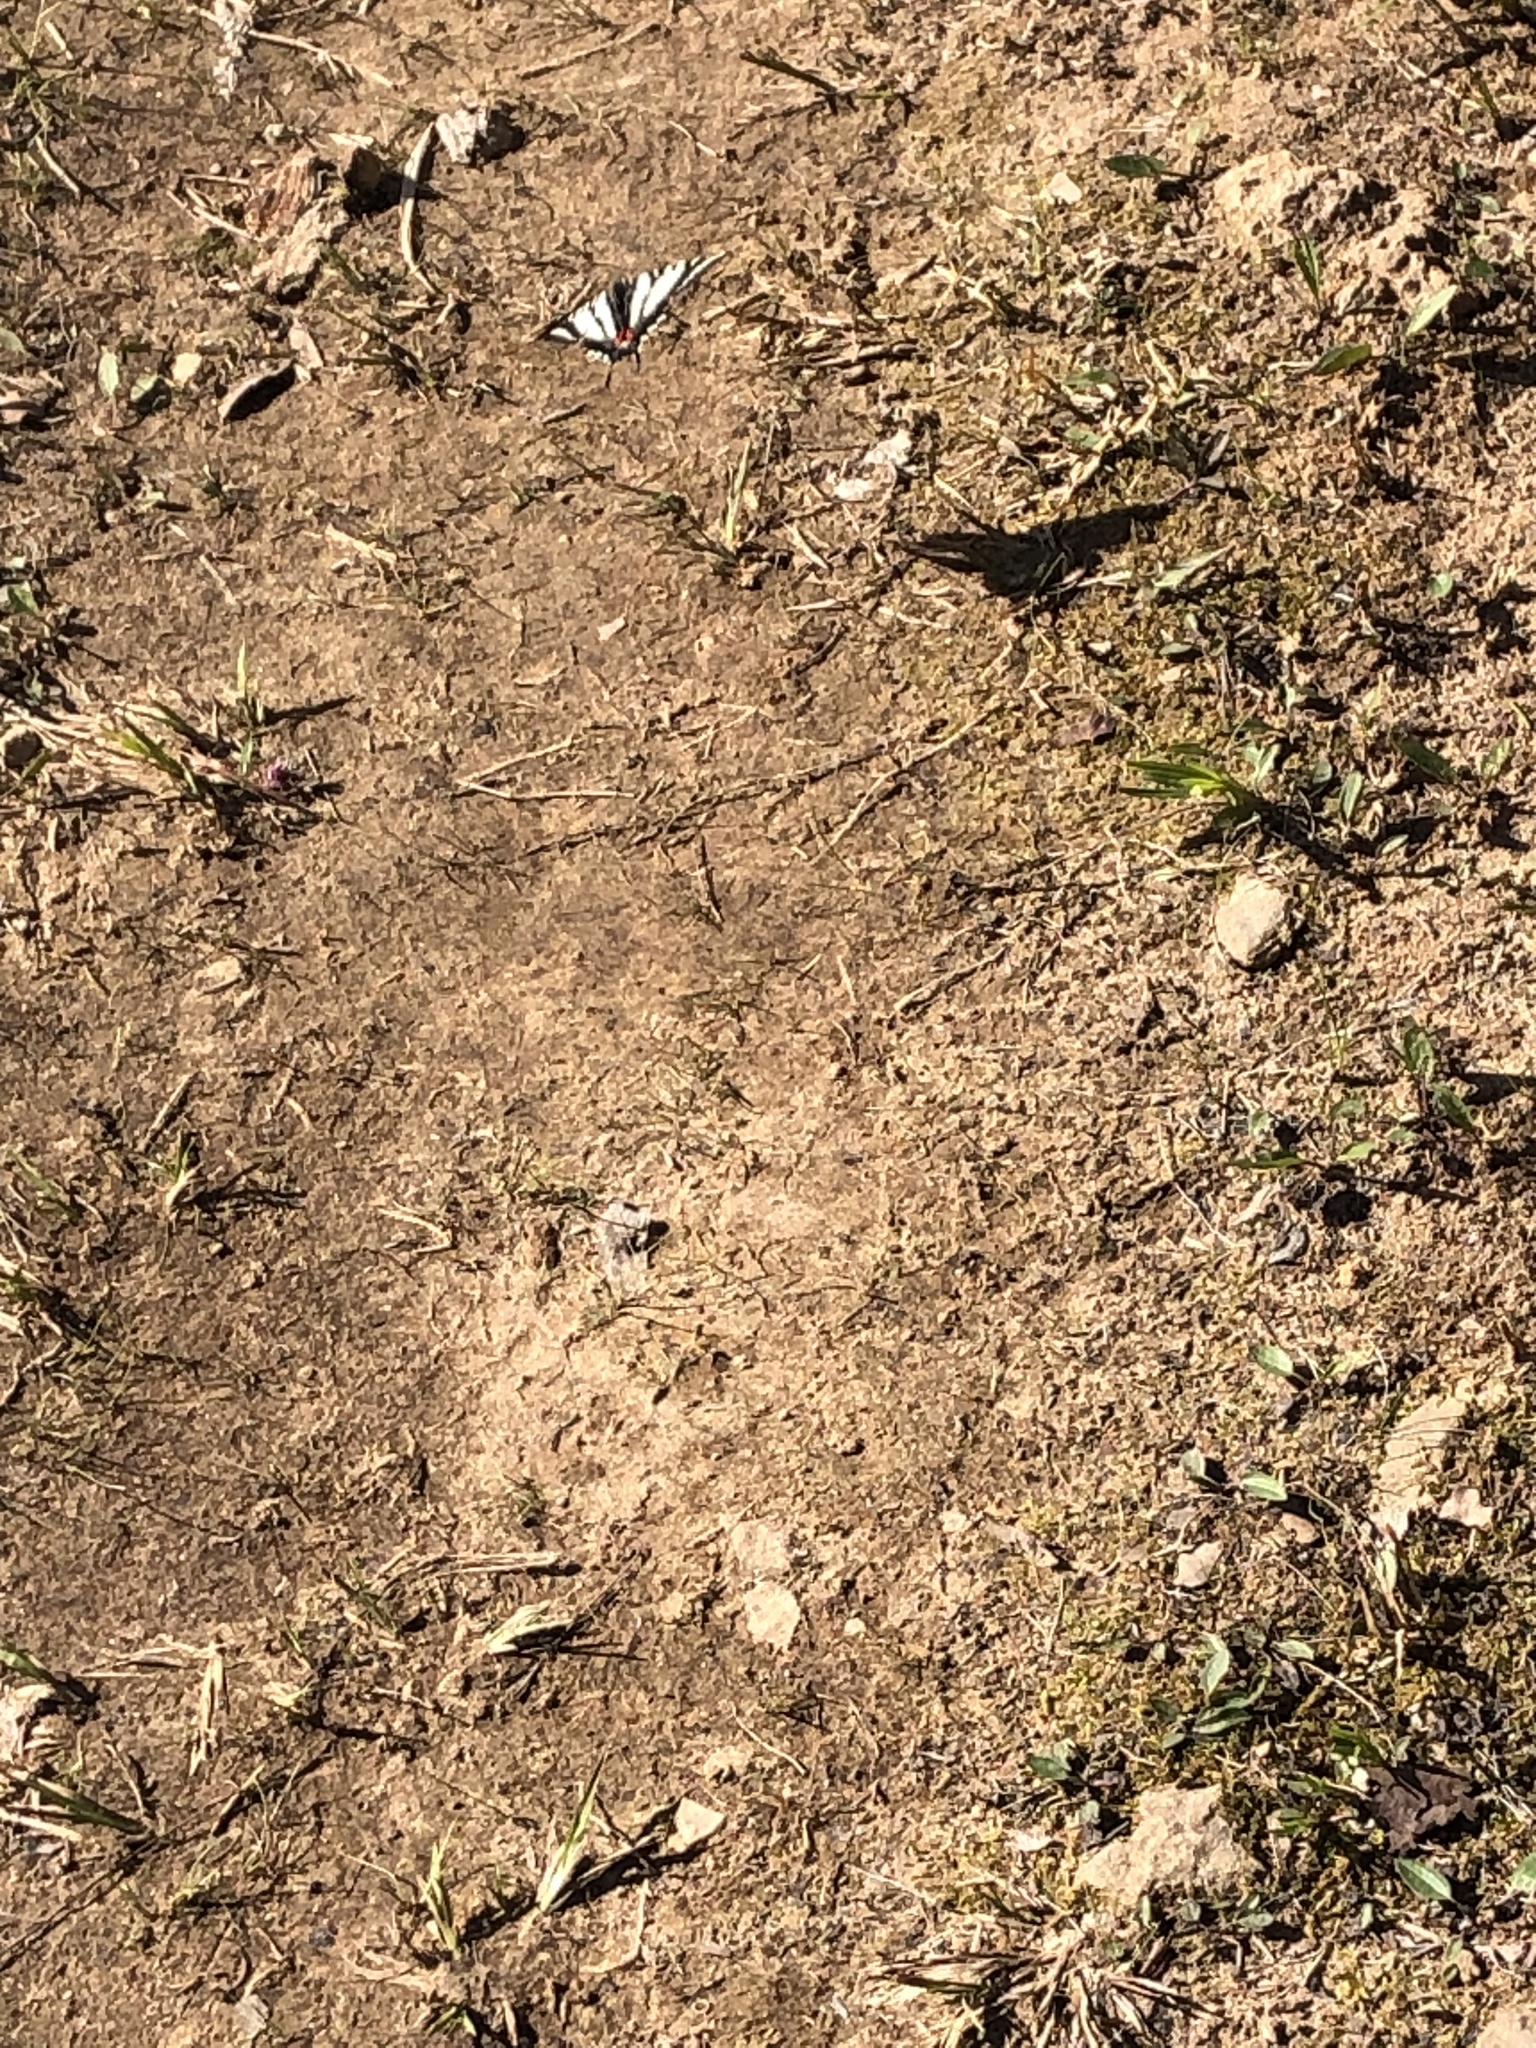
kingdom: Animalia
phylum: Arthropoda
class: Insecta
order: Lepidoptera
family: Papilionidae
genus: Protographium
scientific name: Protographium marcellus
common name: Zebra swallowtail
